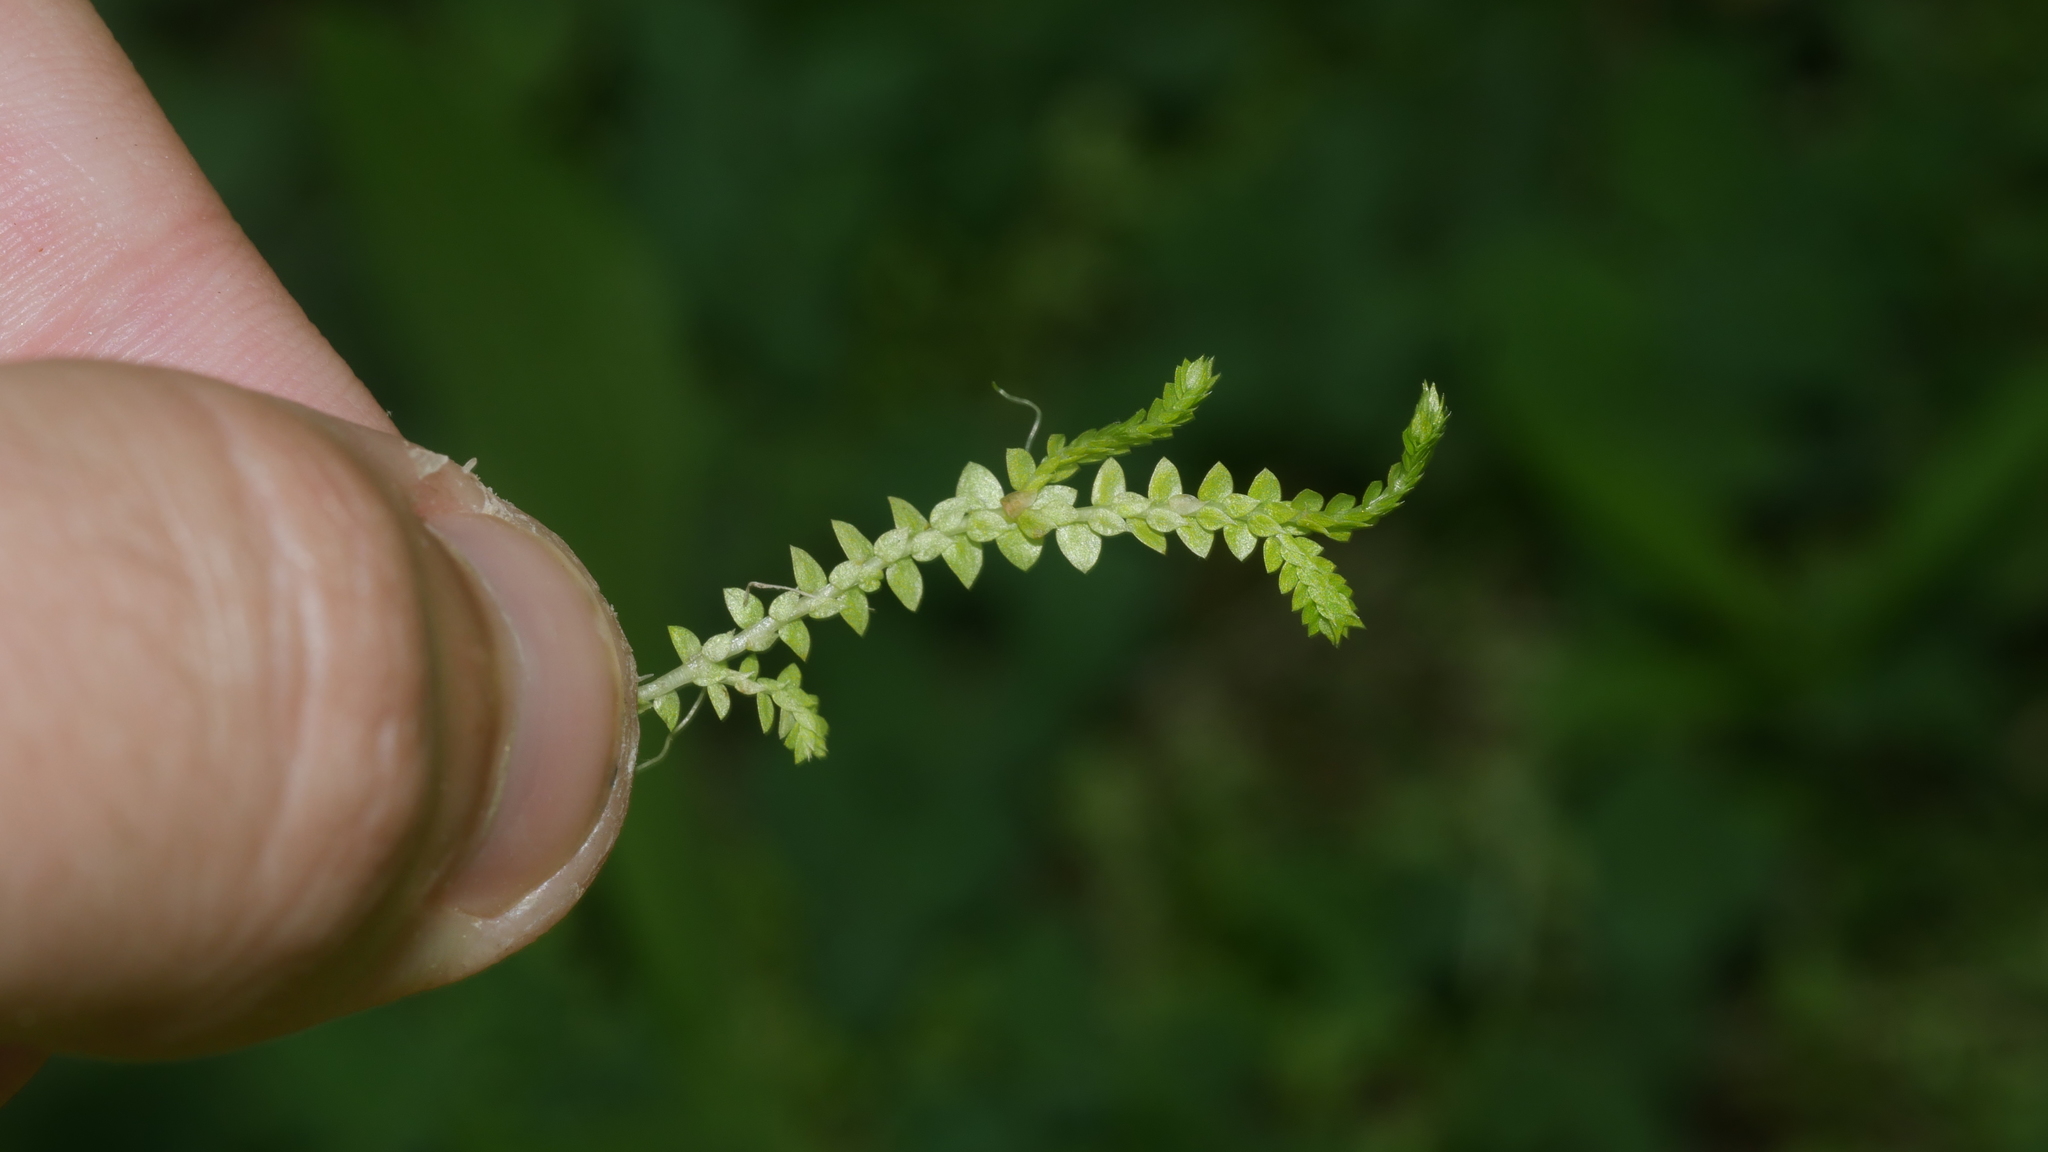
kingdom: Plantae
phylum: Tracheophyta
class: Lycopodiopsida
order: Selaginellales
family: Selaginellaceae
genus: Selaginella
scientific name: Selaginella apoda
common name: Creeping spikemoss
